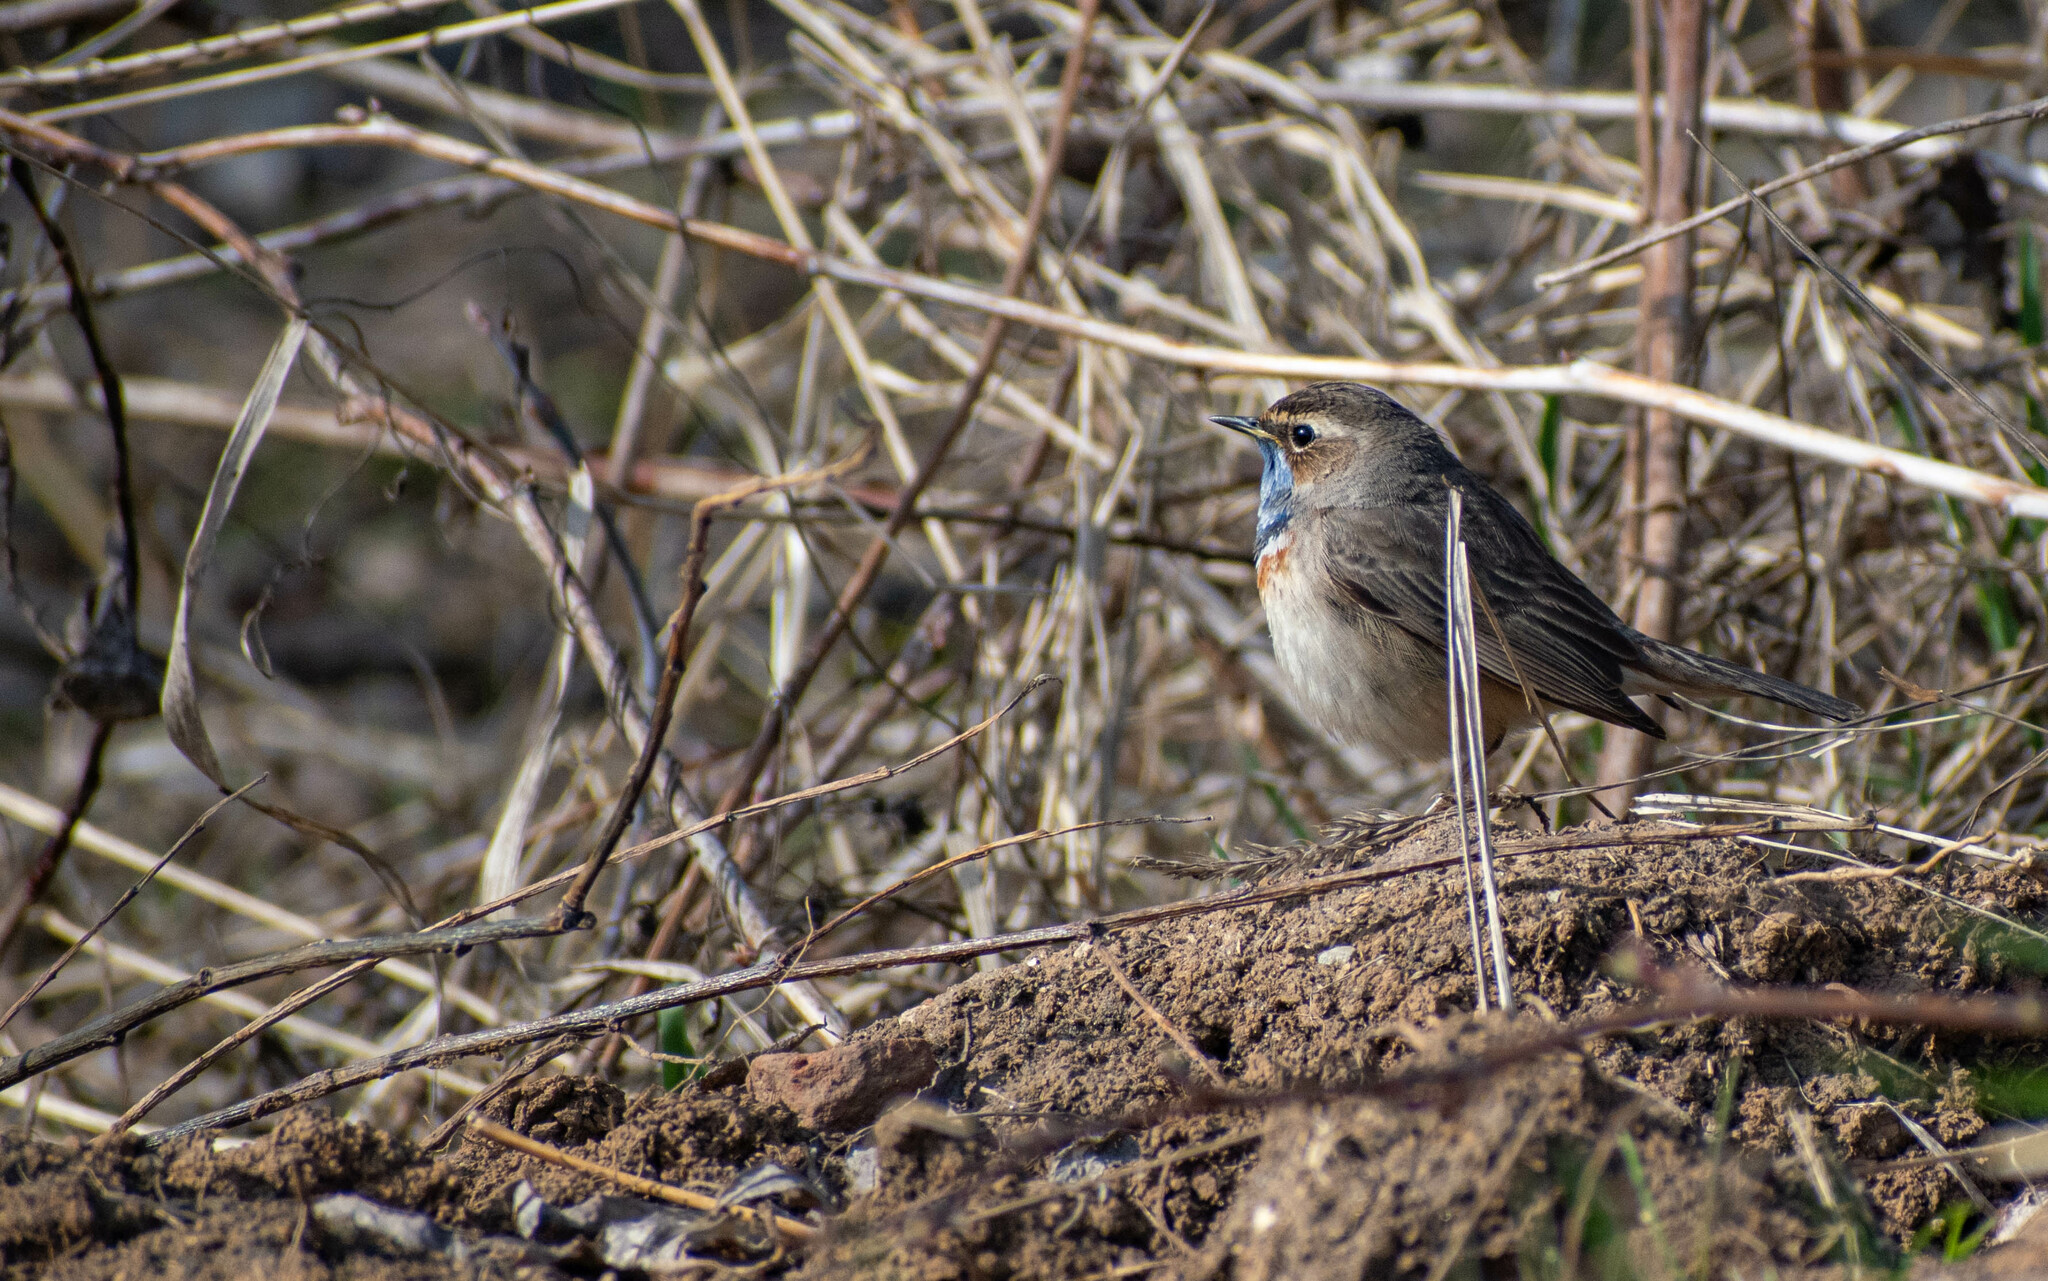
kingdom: Animalia
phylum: Chordata
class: Aves
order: Passeriformes
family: Muscicapidae
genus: Luscinia
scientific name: Luscinia svecica
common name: Bluethroat
